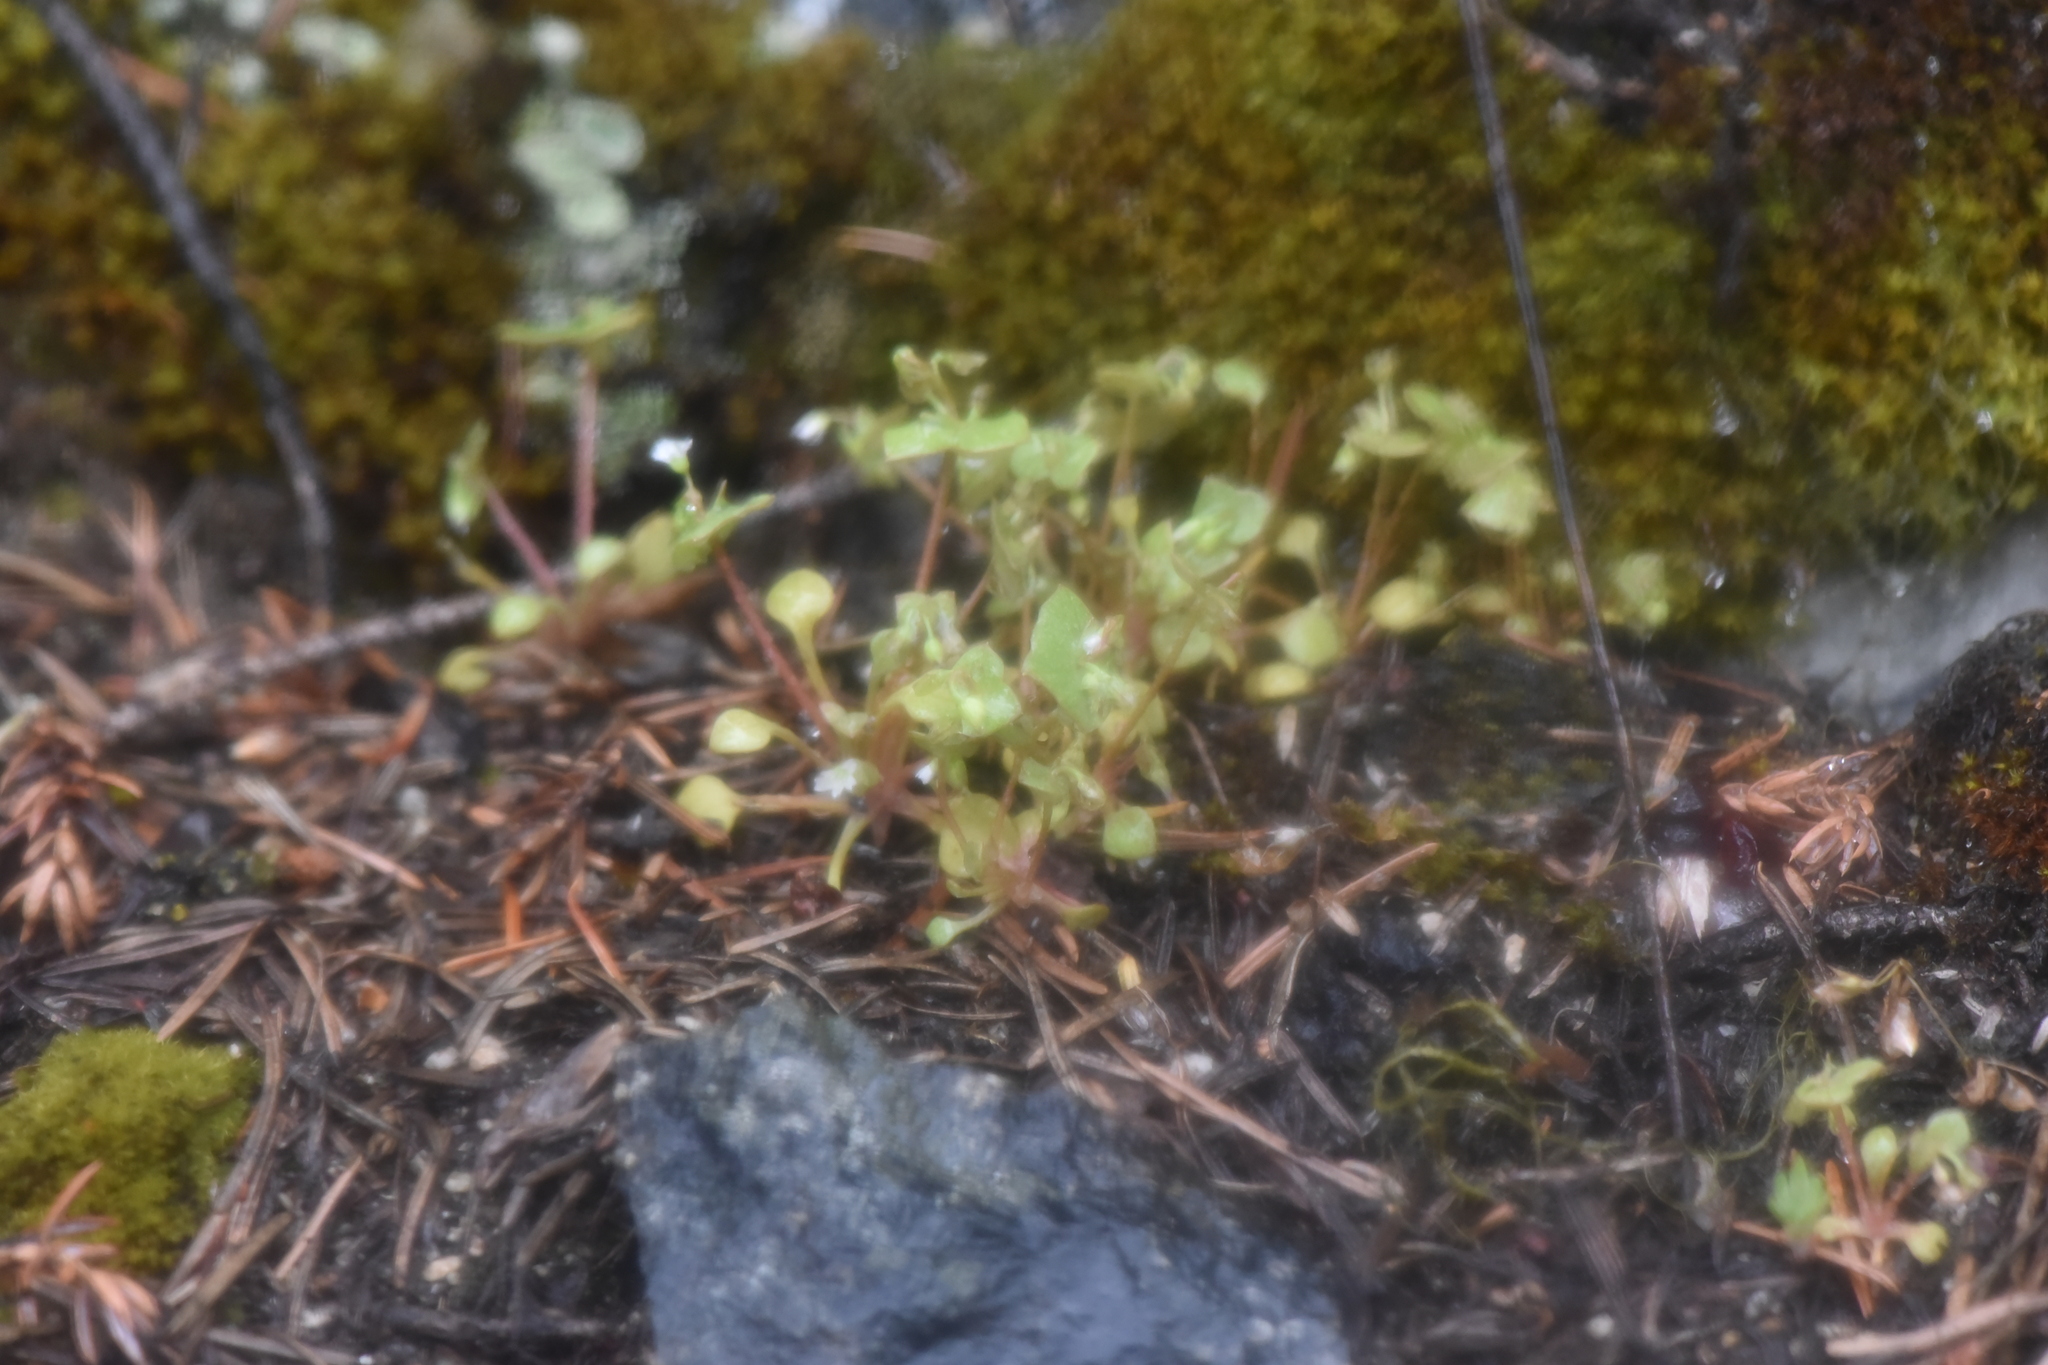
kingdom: Plantae
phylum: Tracheophyta
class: Magnoliopsida
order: Caryophyllales
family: Montiaceae
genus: Claytonia
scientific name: Claytonia rubra
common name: Erubescent miner's-lettuce
